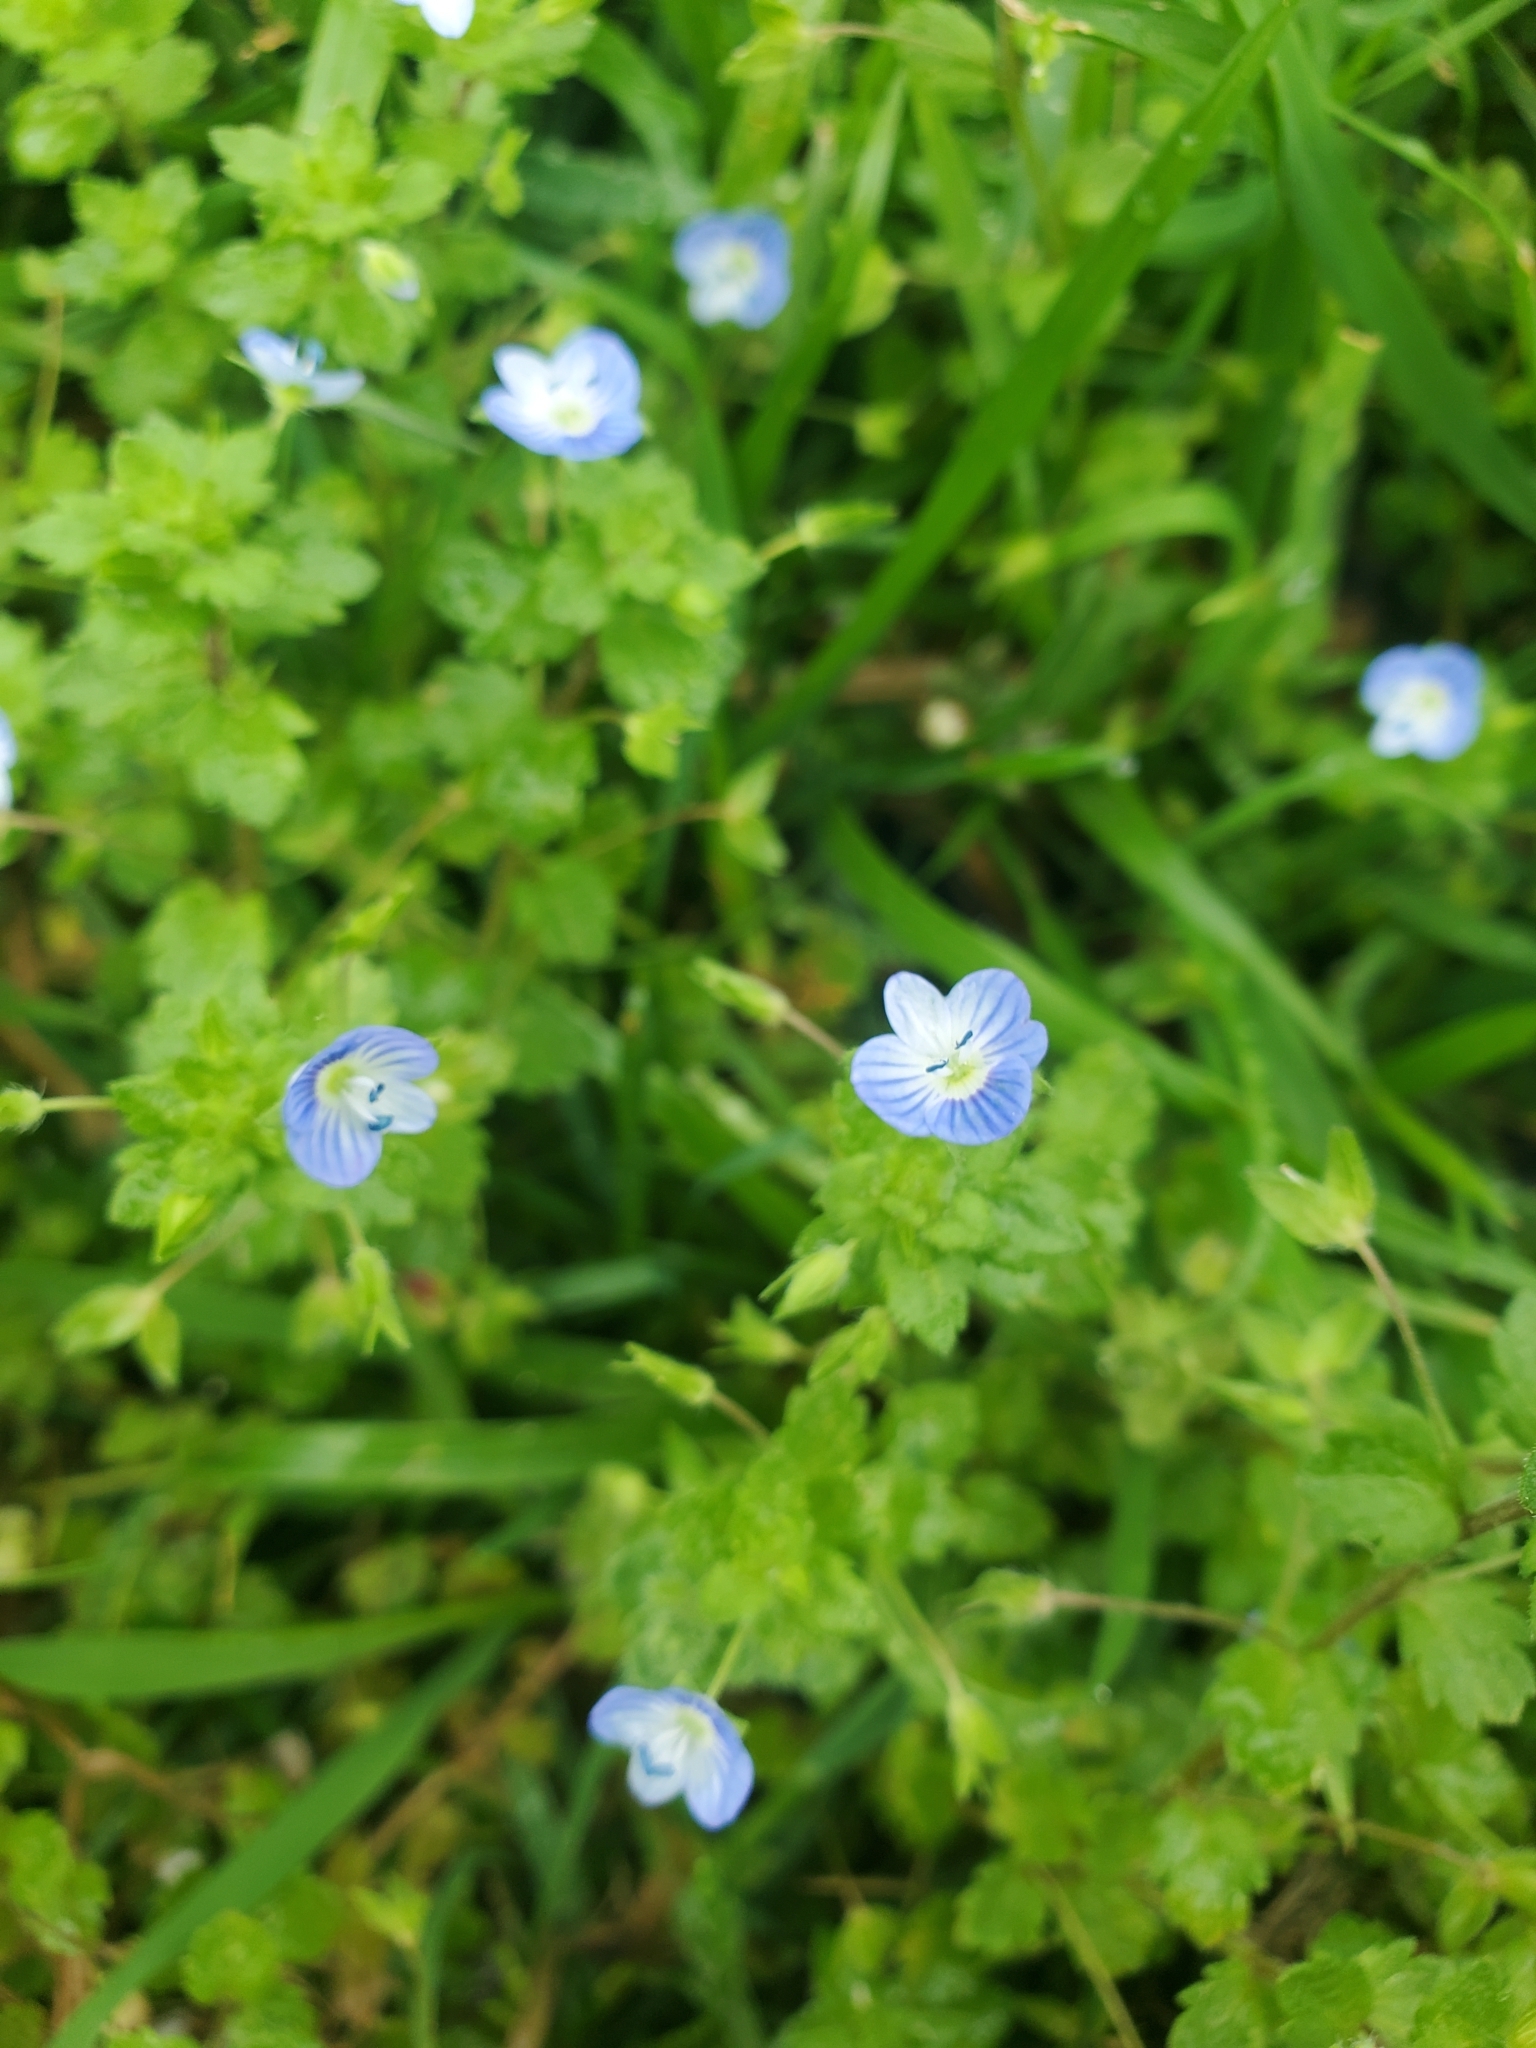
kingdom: Plantae
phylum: Tracheophyta
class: Magnoliopsida
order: Lamiales
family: Plantaginaceae
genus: Veronica
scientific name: Veronica persica
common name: Common field-speedwell
